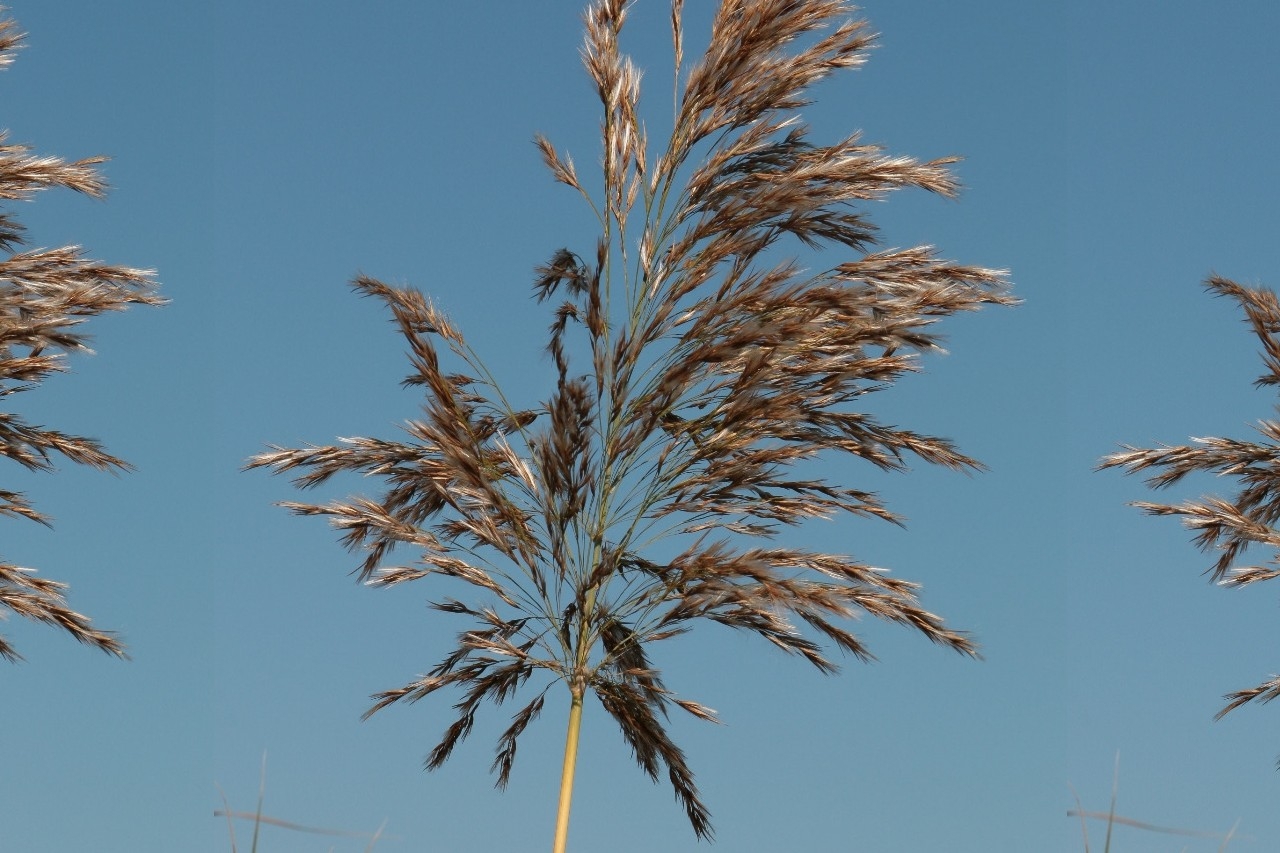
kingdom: Plantae
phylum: Tracheophyta
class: Liliopsida
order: Poales
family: Poaceae
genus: Phragmites
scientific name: Phragmites australis
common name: Common reed
